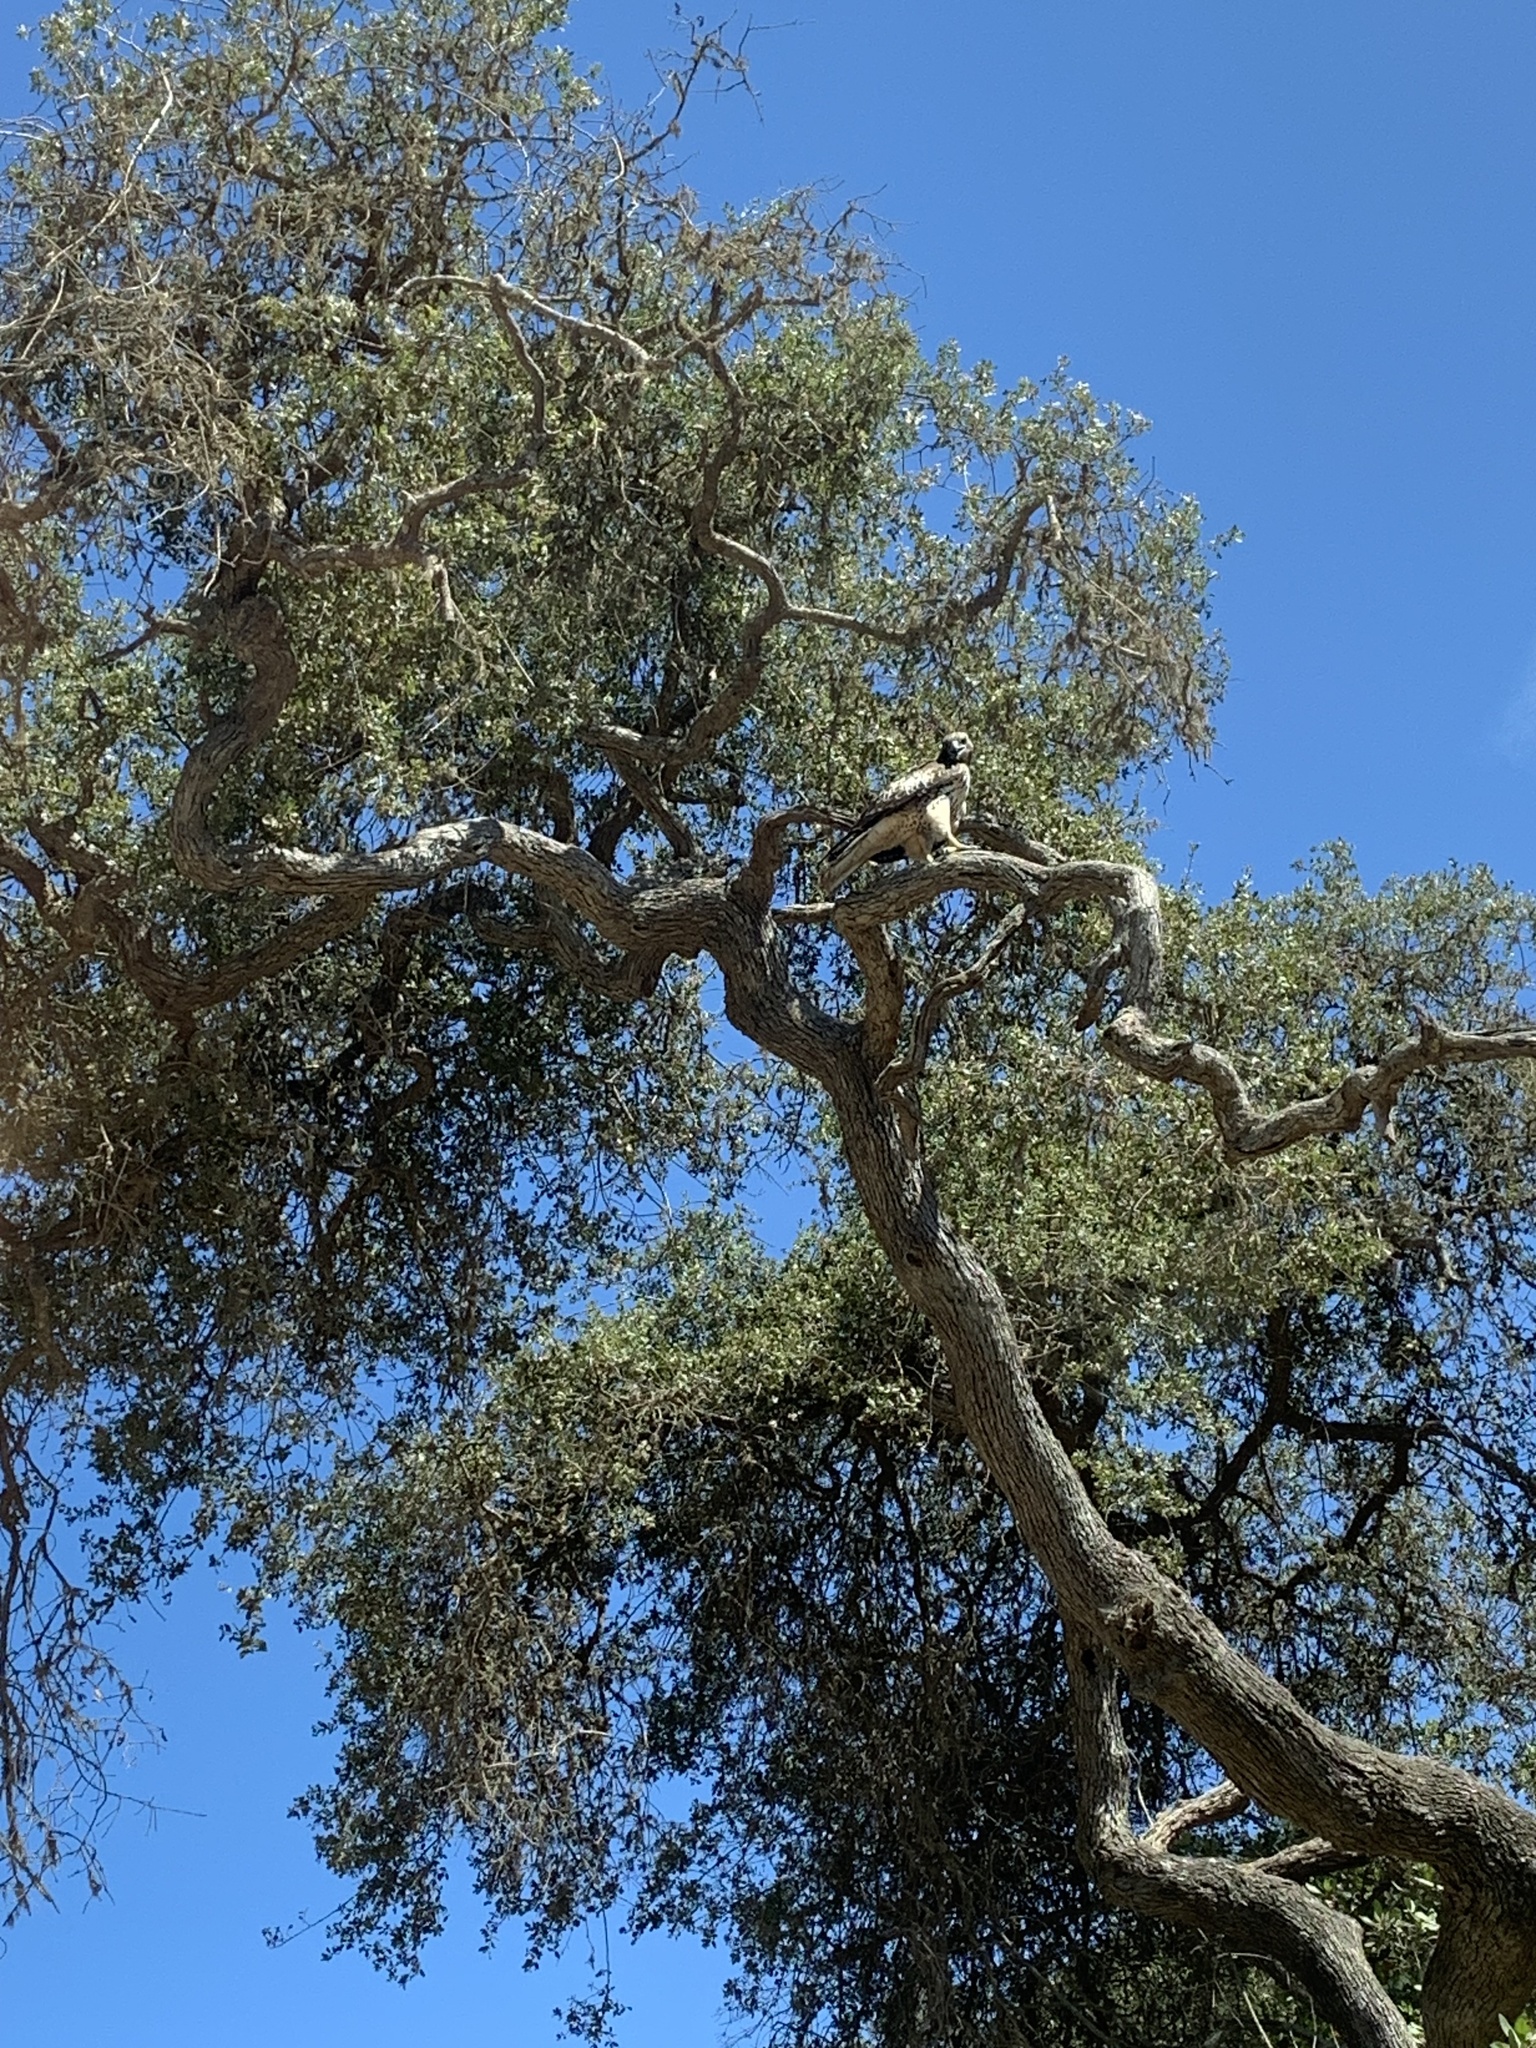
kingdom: Animalia
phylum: Chordata
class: Aves
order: Accipitriformes
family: Accipitridae
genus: Buteo
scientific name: Buteo jamaicensis
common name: Red-tailed hawk
